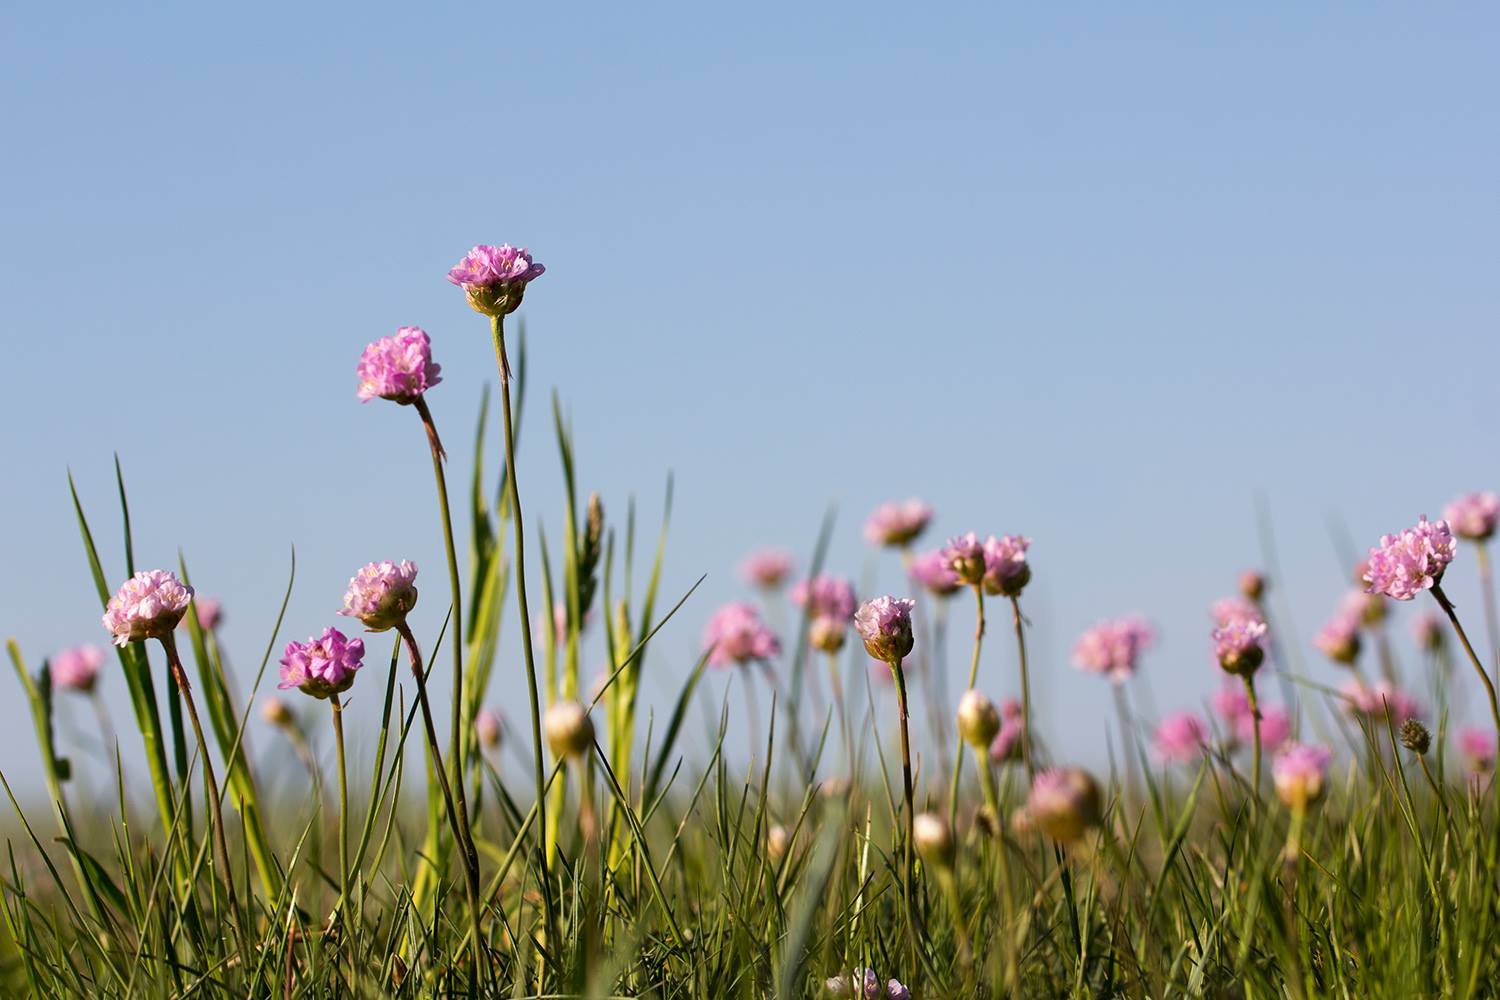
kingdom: Plantae
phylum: Tracheophyta
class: Magnoliopsida
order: Caryophyllales
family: Plumbaginaceae
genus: Armeria
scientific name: Armeria maritima
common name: Thrift
